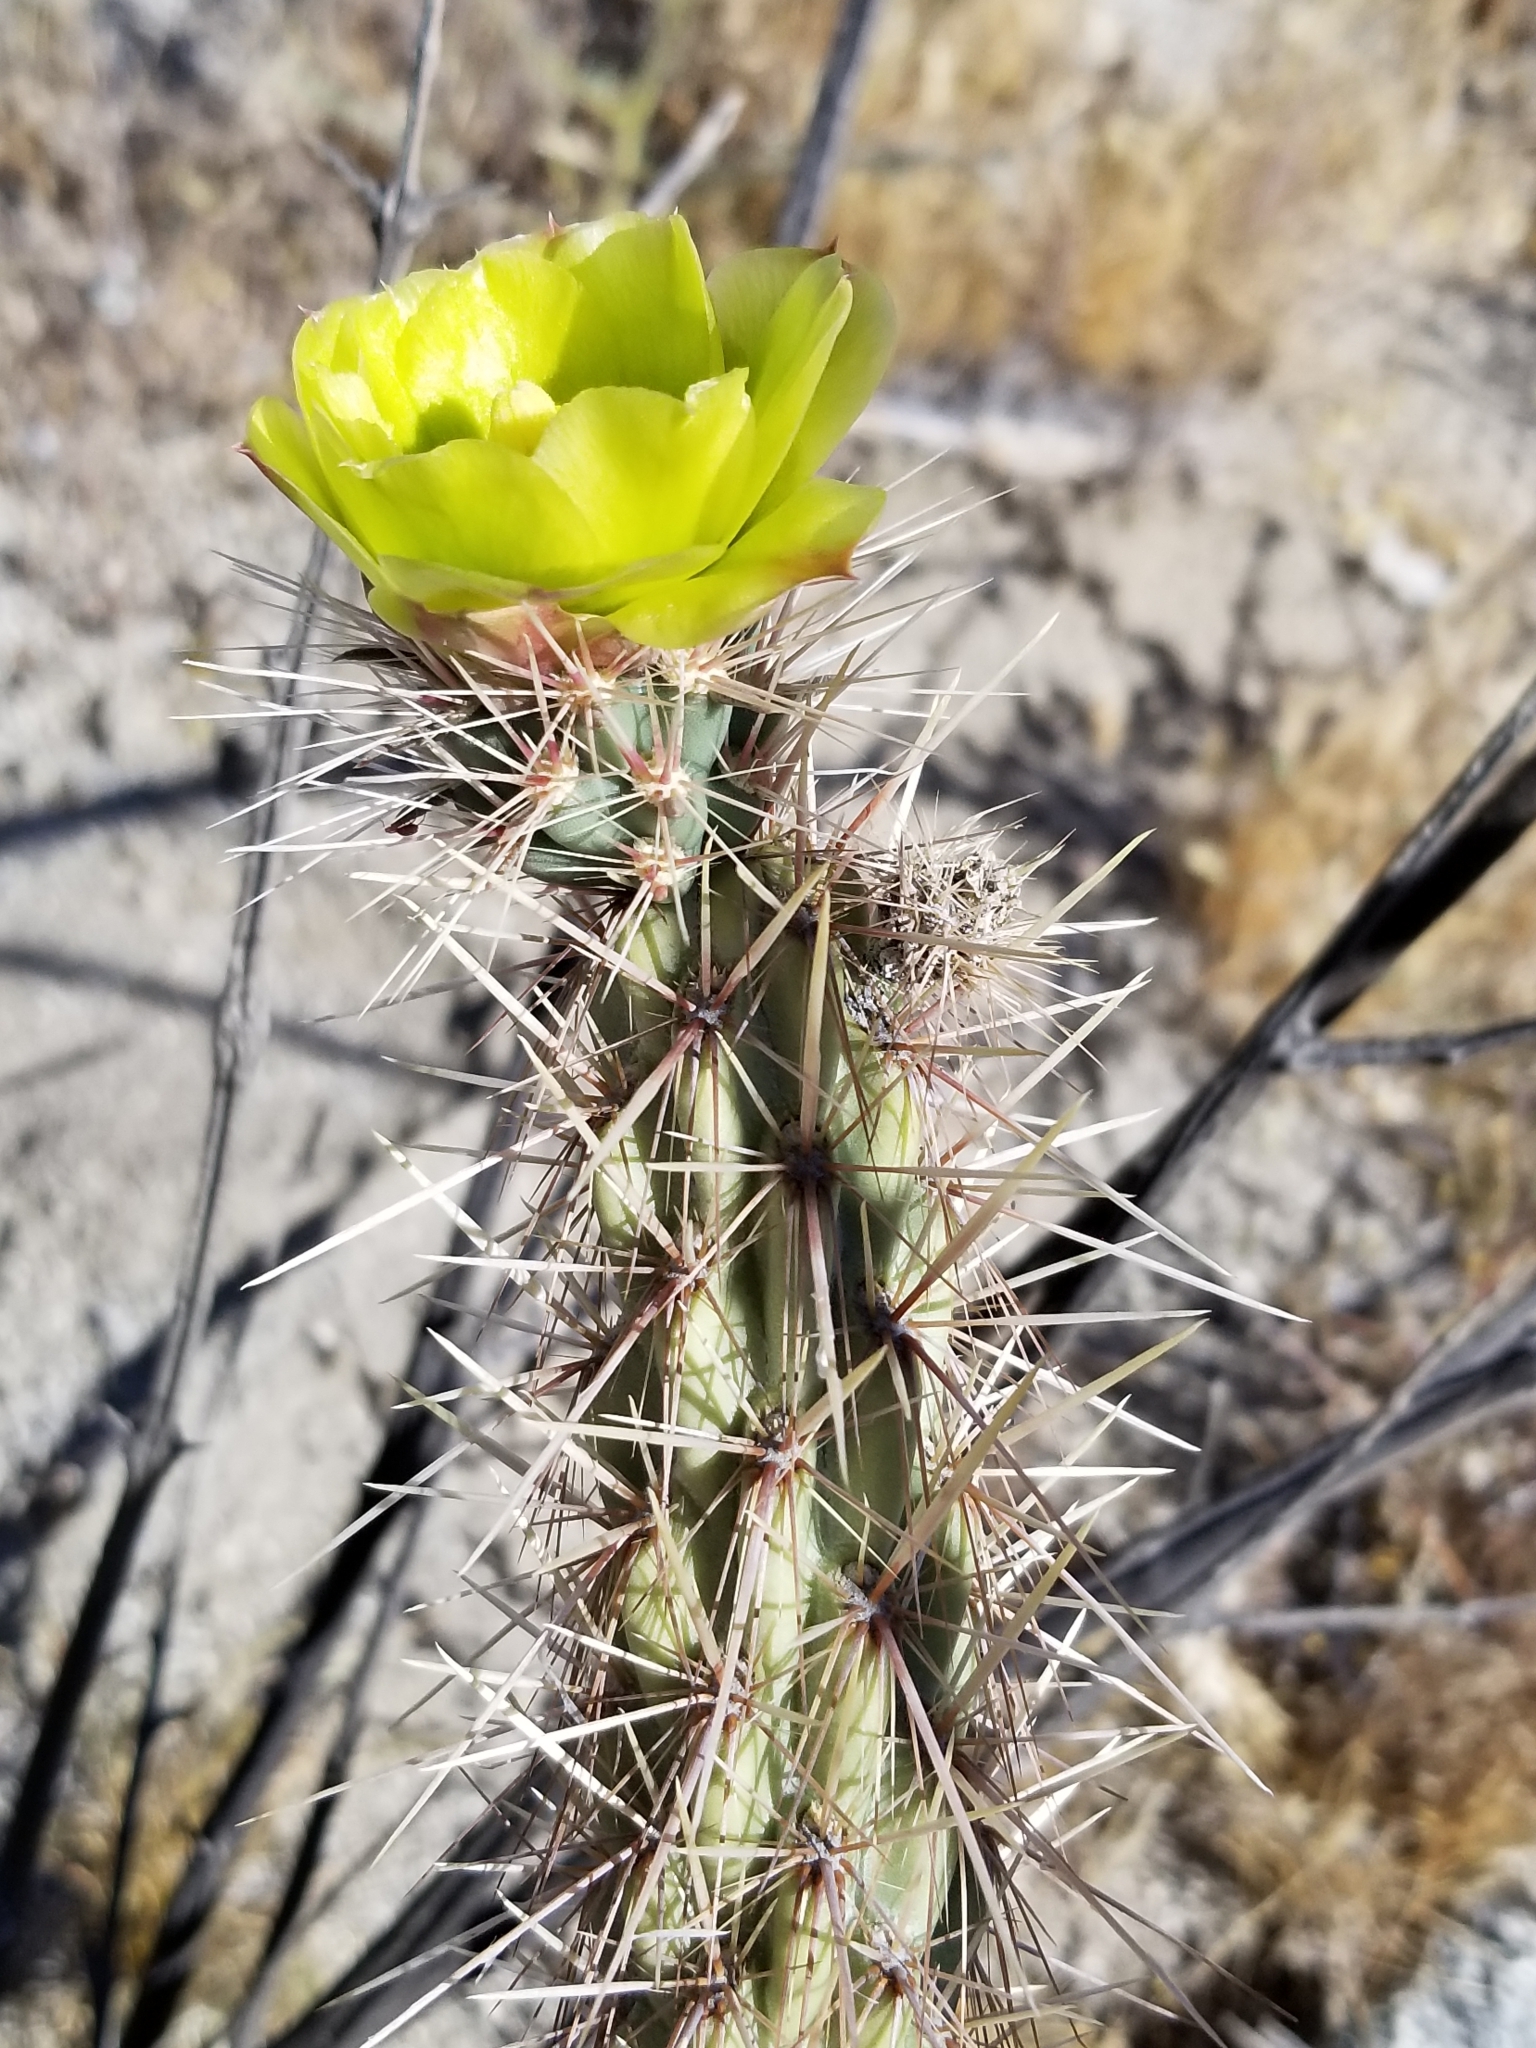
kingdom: Plantae
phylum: Tracheophyta
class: Magnoliopsida
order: Caryophyllales
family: Cactaceae
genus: Cylindropuntia
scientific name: Cylindropuntia ganderi
